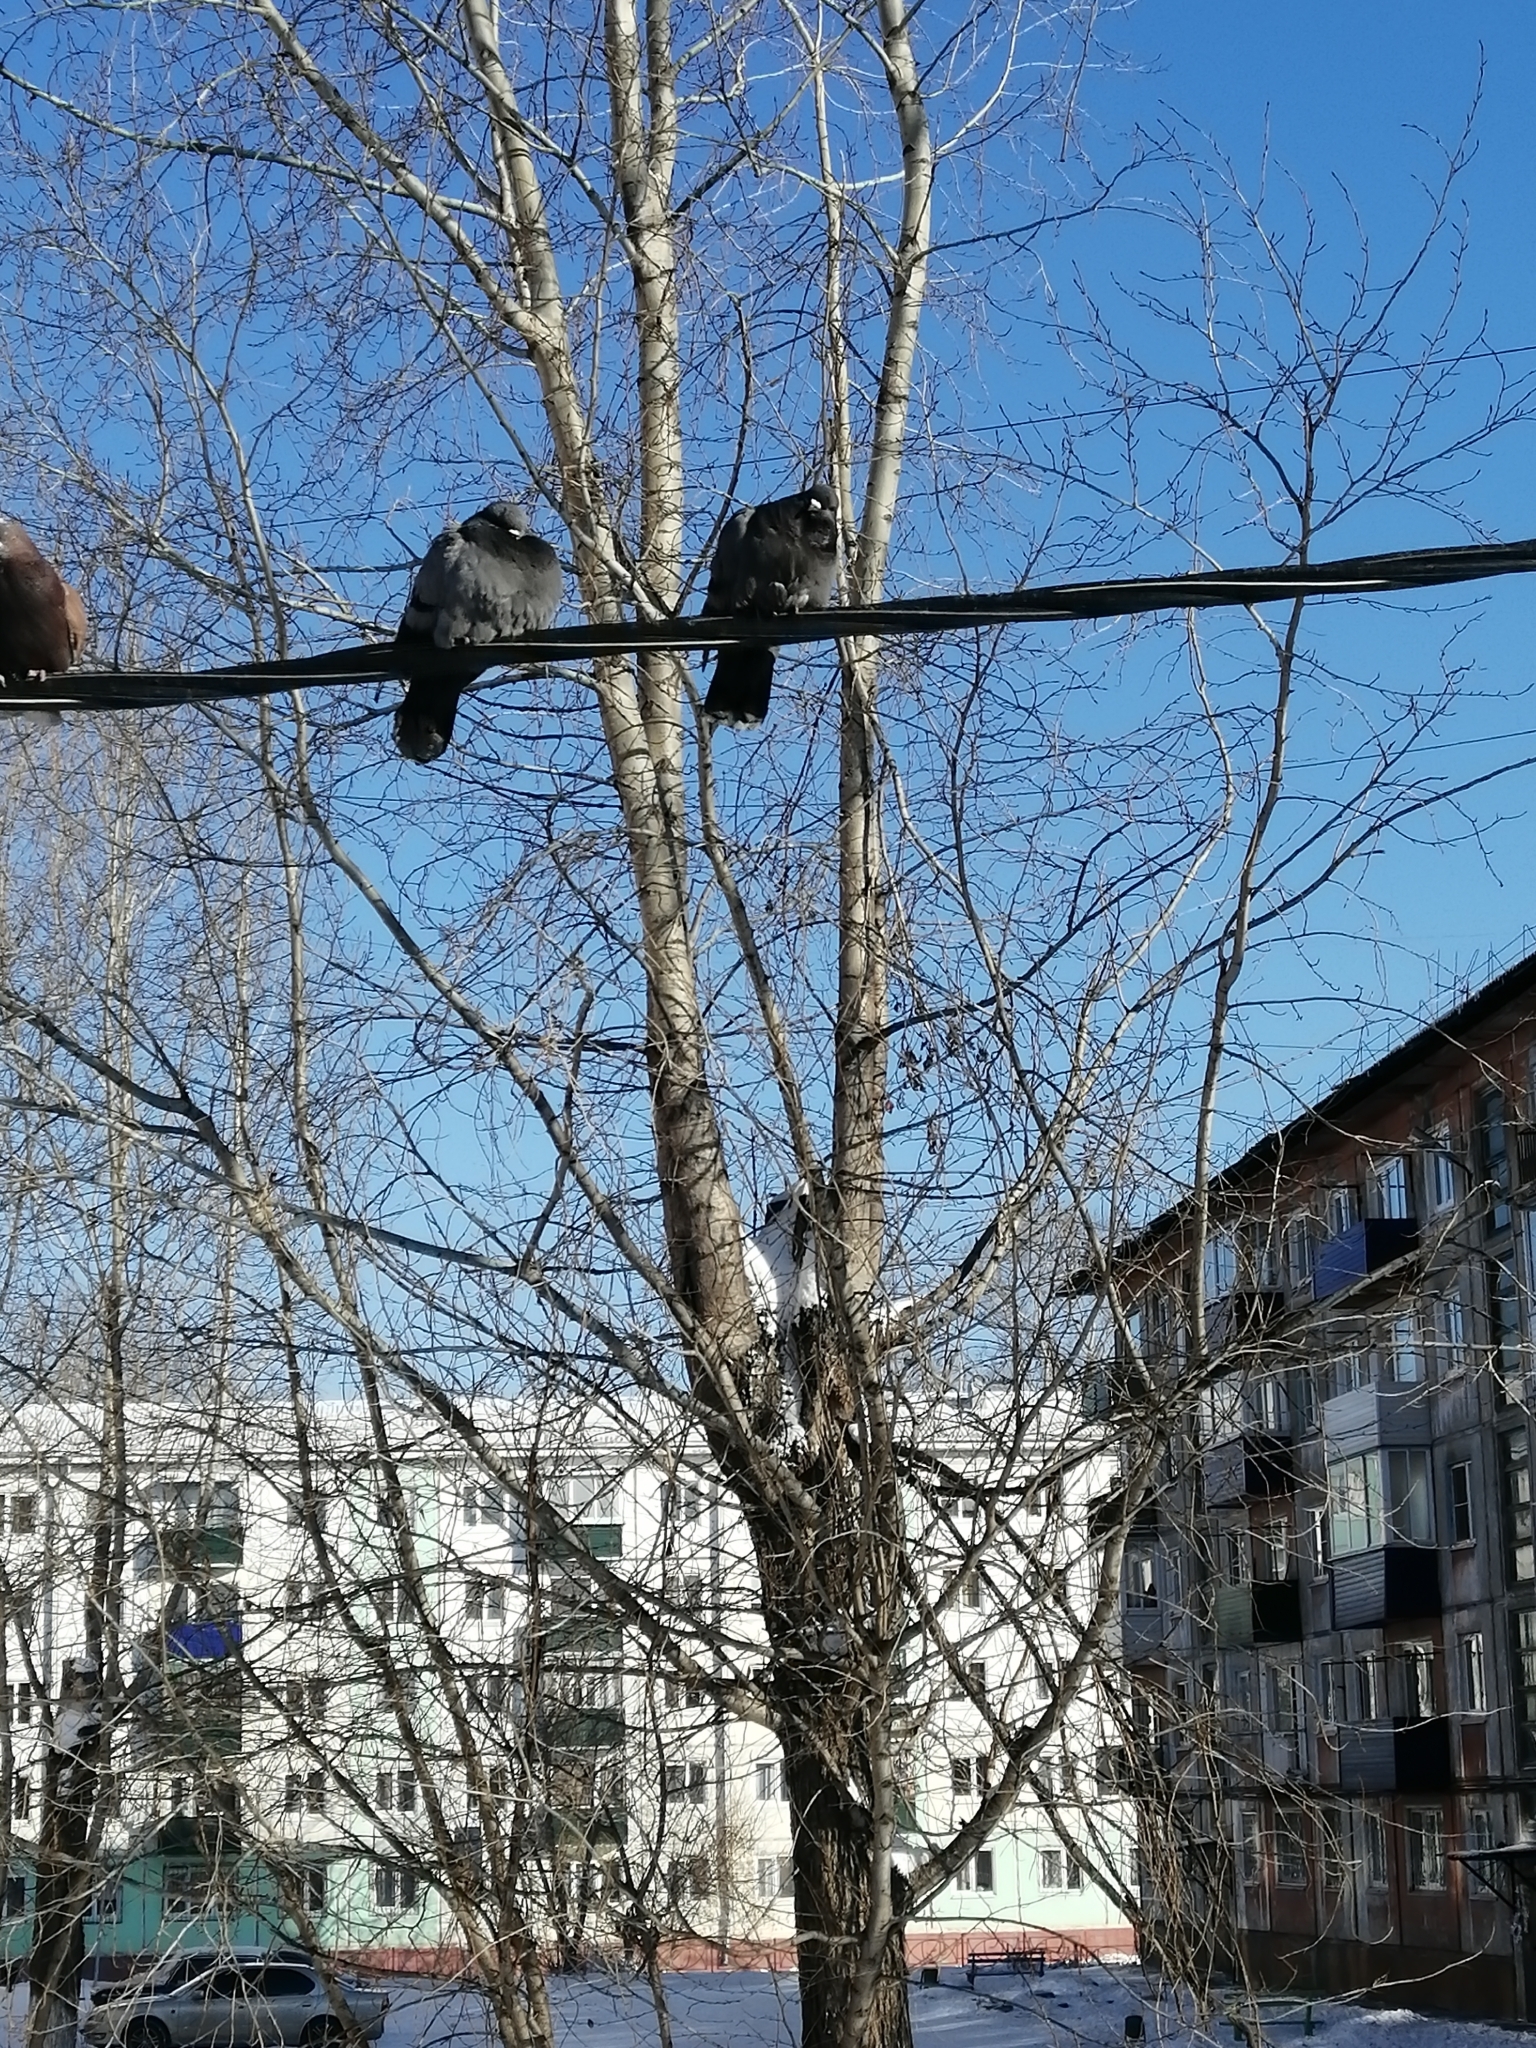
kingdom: Animalia
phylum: Chordata
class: Aves
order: Columbiformes
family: Columbidae
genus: Columba
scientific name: Columba livia
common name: Rock pigeon
